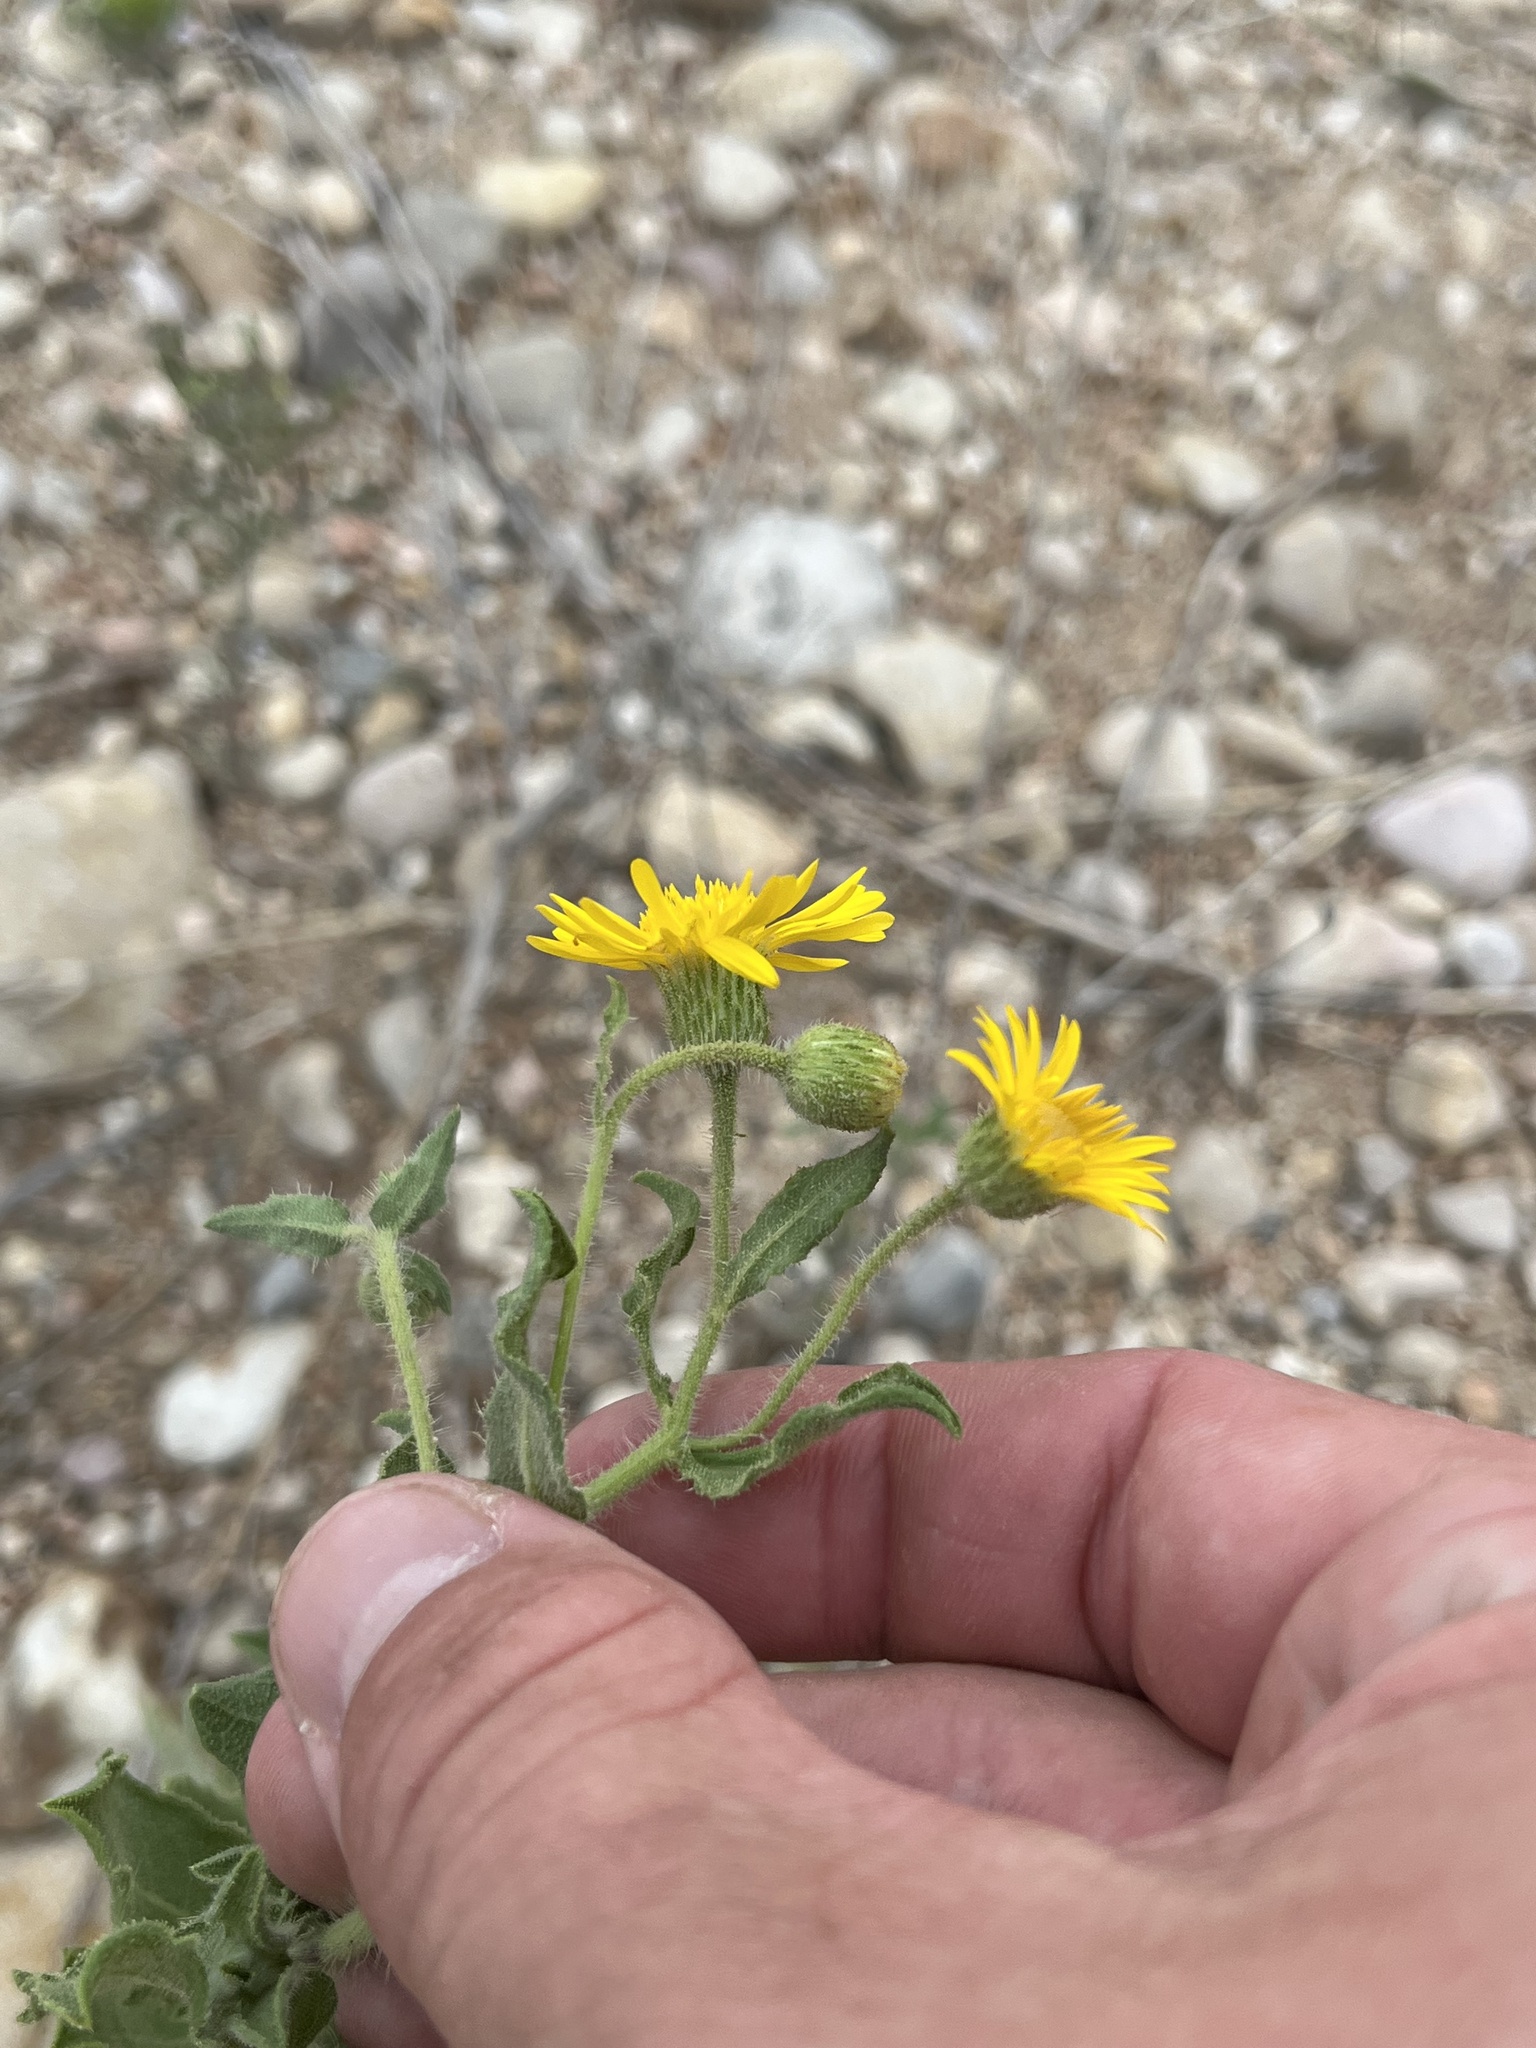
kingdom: Plantae
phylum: Tracheophyta
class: Magnoliopsida
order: Asterales
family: Asteraceae
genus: Heterotheca
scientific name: Heterotheca subaxillaris
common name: Camphorweed
